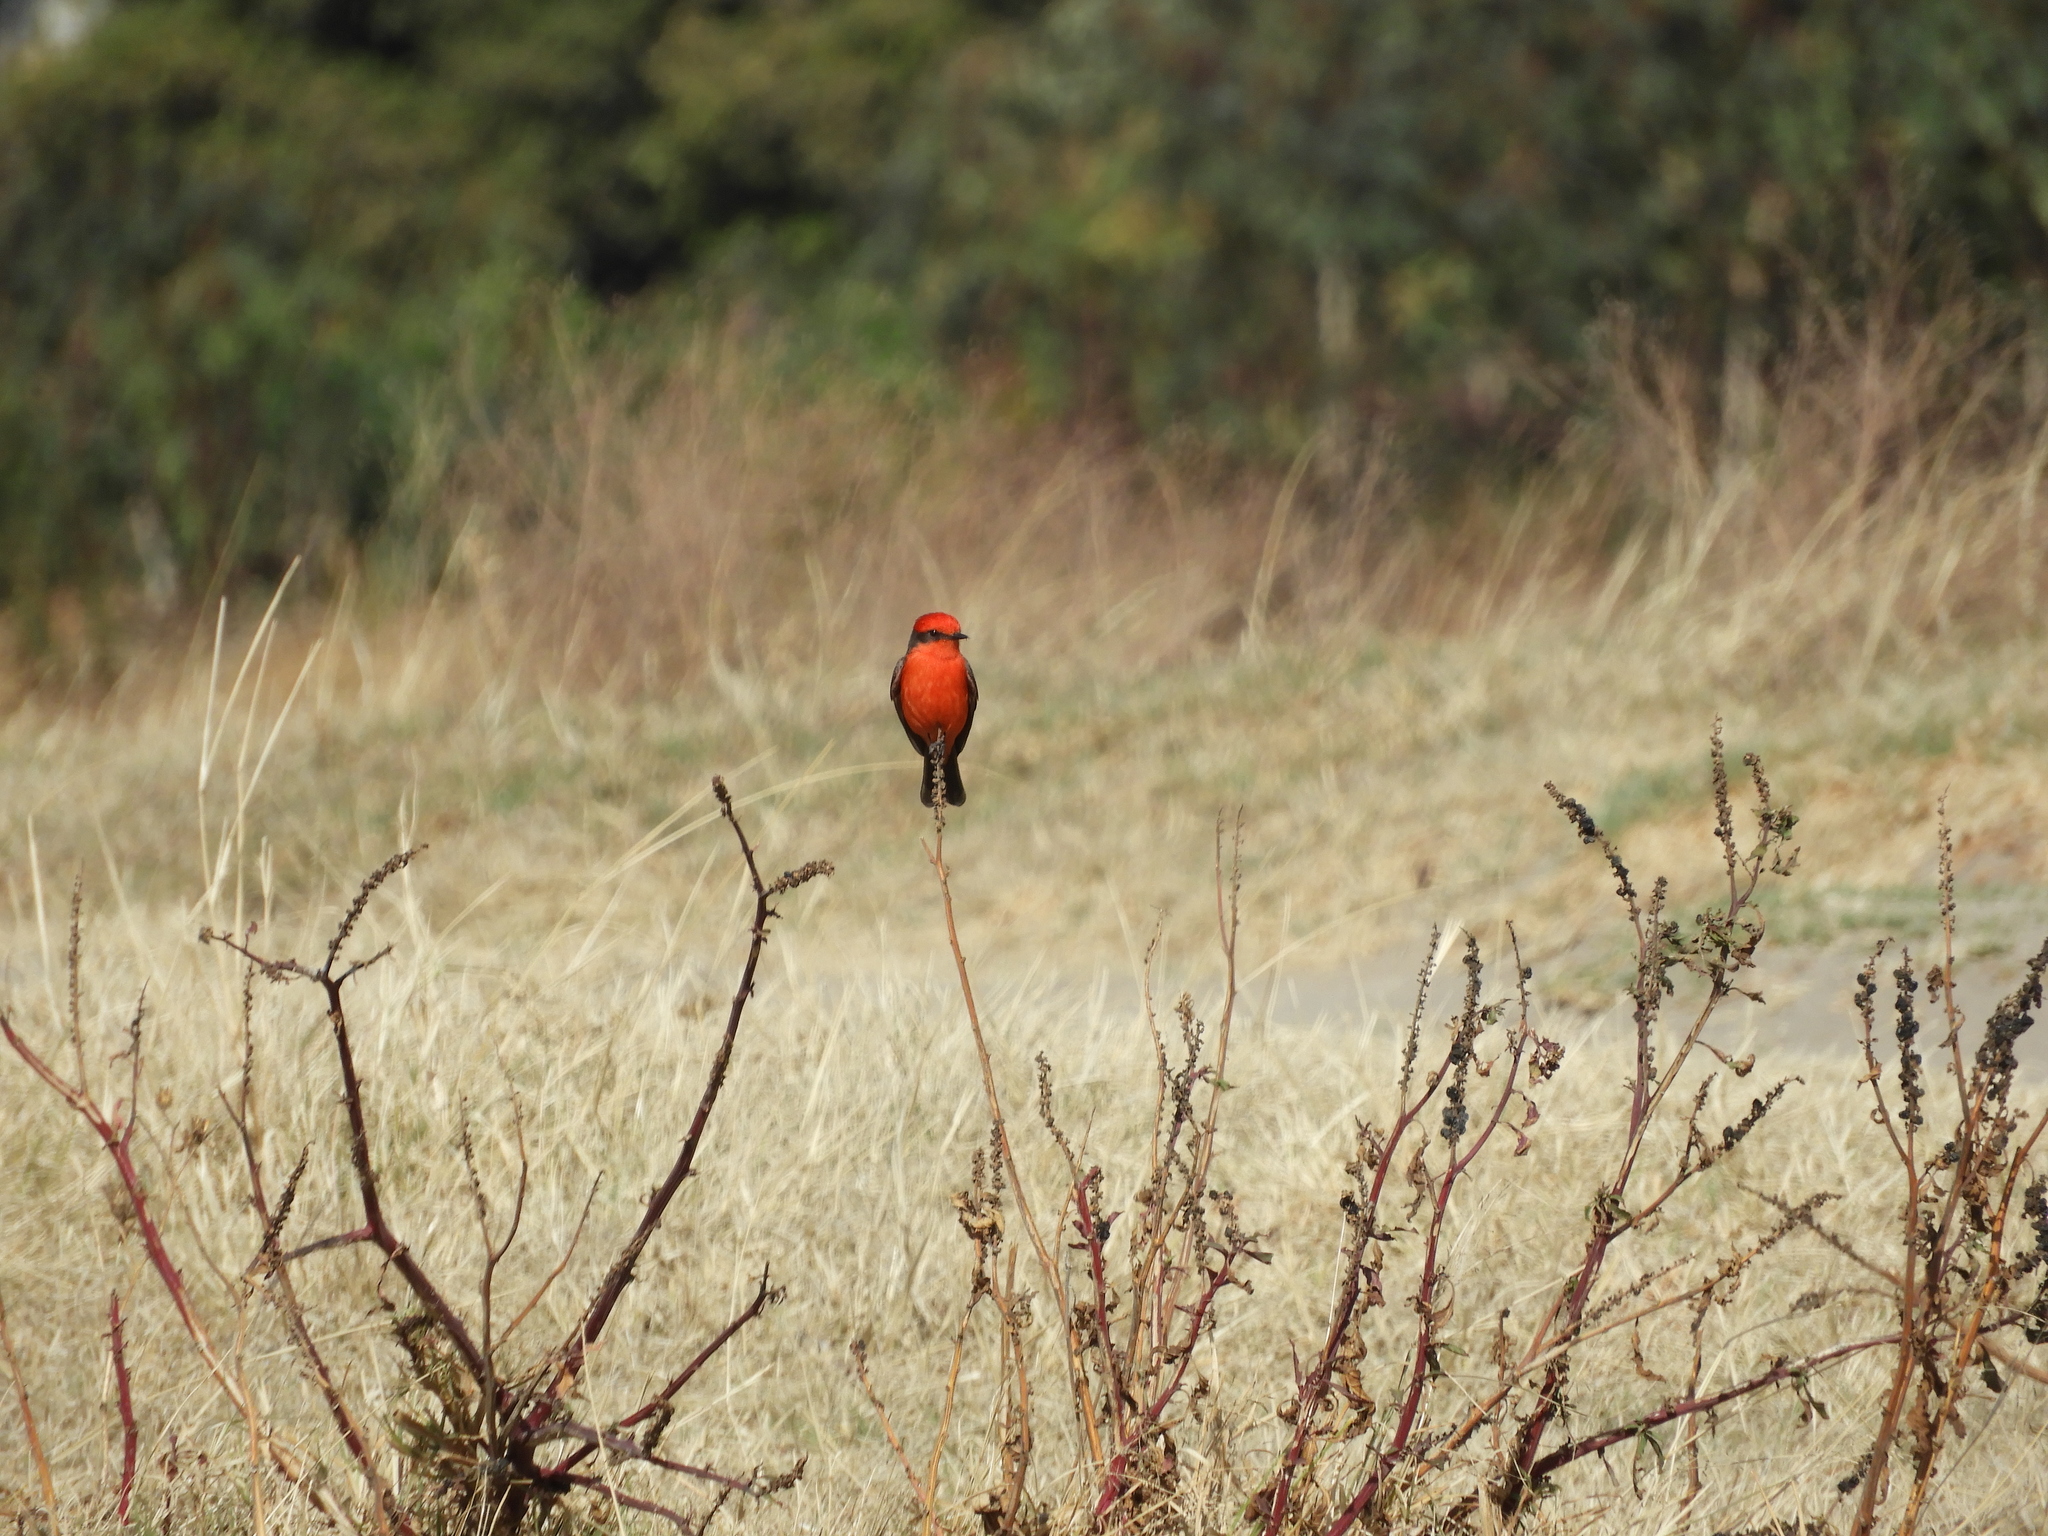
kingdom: Animalia
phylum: Chordata
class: Aves
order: Passeriformes
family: Tyrannidae
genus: Pyrocephalus
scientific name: Pyrocephalus rubinus
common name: Vermilion flycatcher
